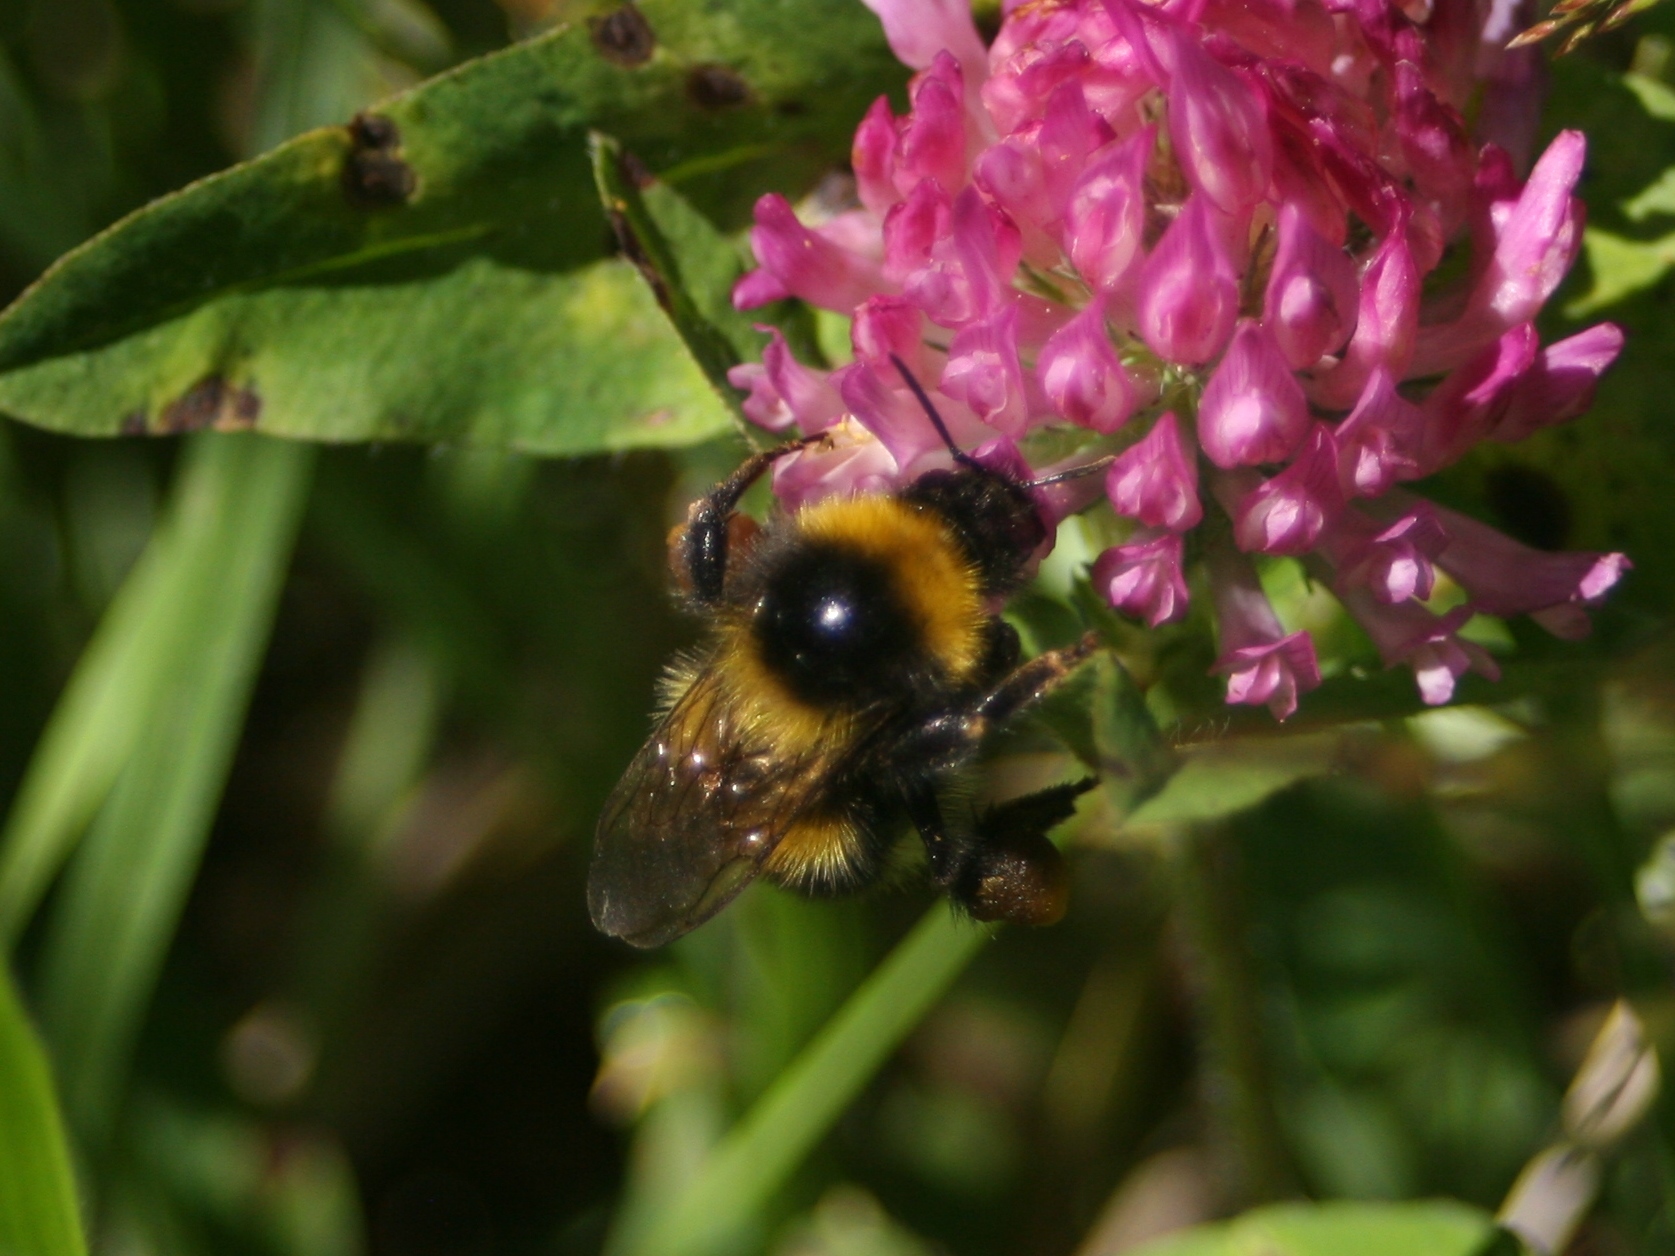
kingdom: Animalia
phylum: Arthropoda
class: Insecta
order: Hymenoptera
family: Apidae
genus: Bombus
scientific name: Bombus ruderatus
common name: Large garden bumblebee
